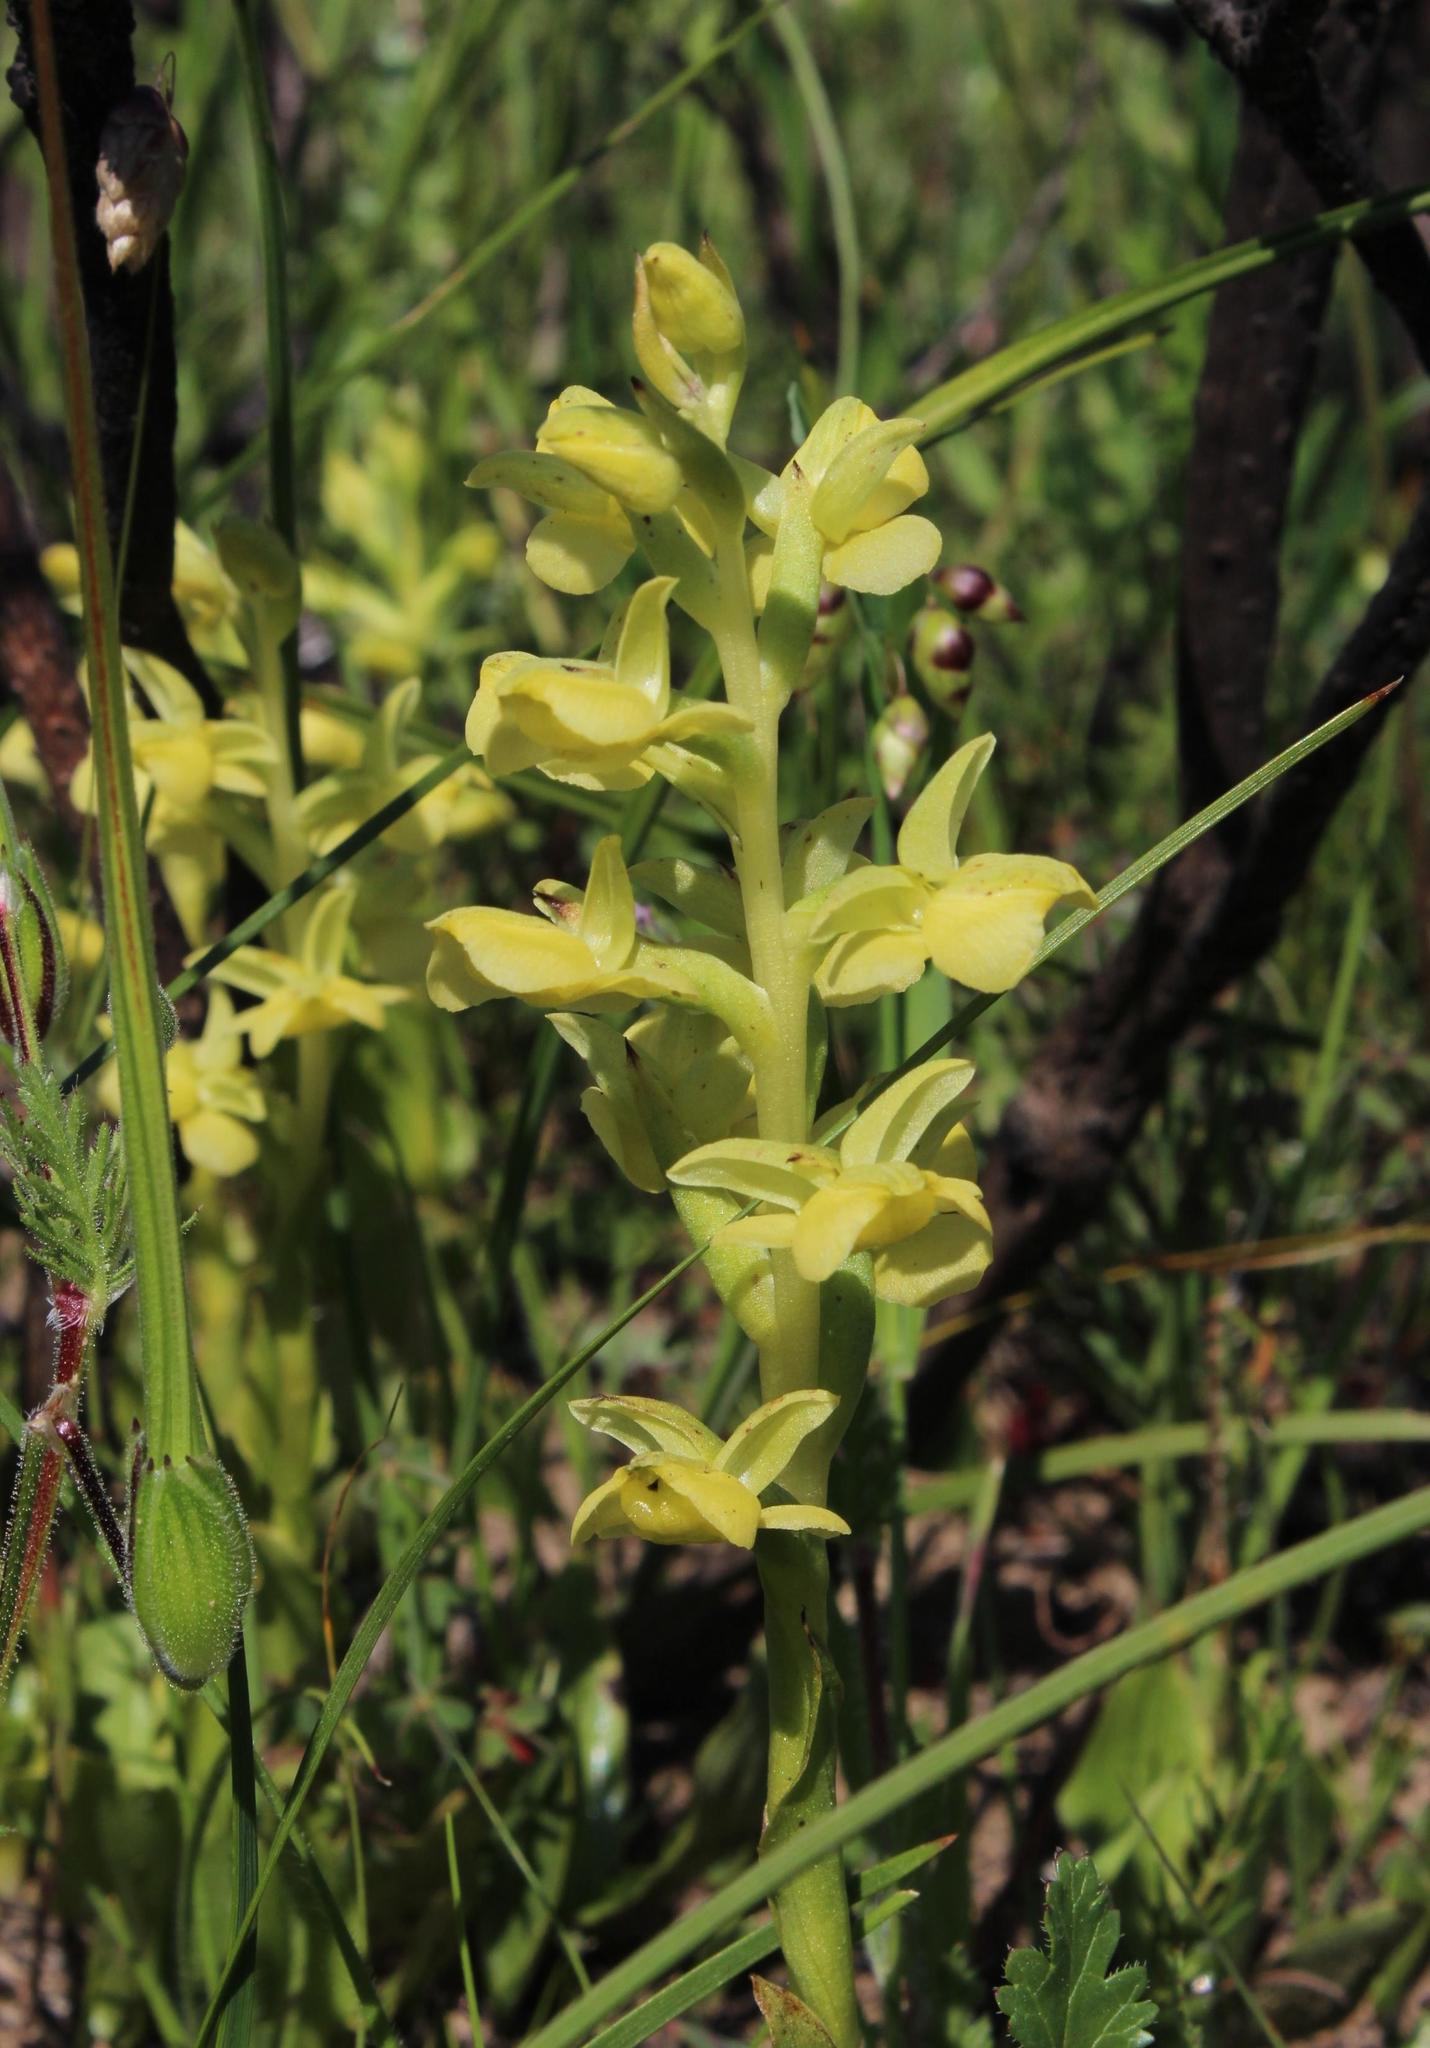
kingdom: Plantae
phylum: Tracheophyta
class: Liliopsida
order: Asparagales
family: Orchidaceae
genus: Pterygodium
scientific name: Pterygodium caffrum
